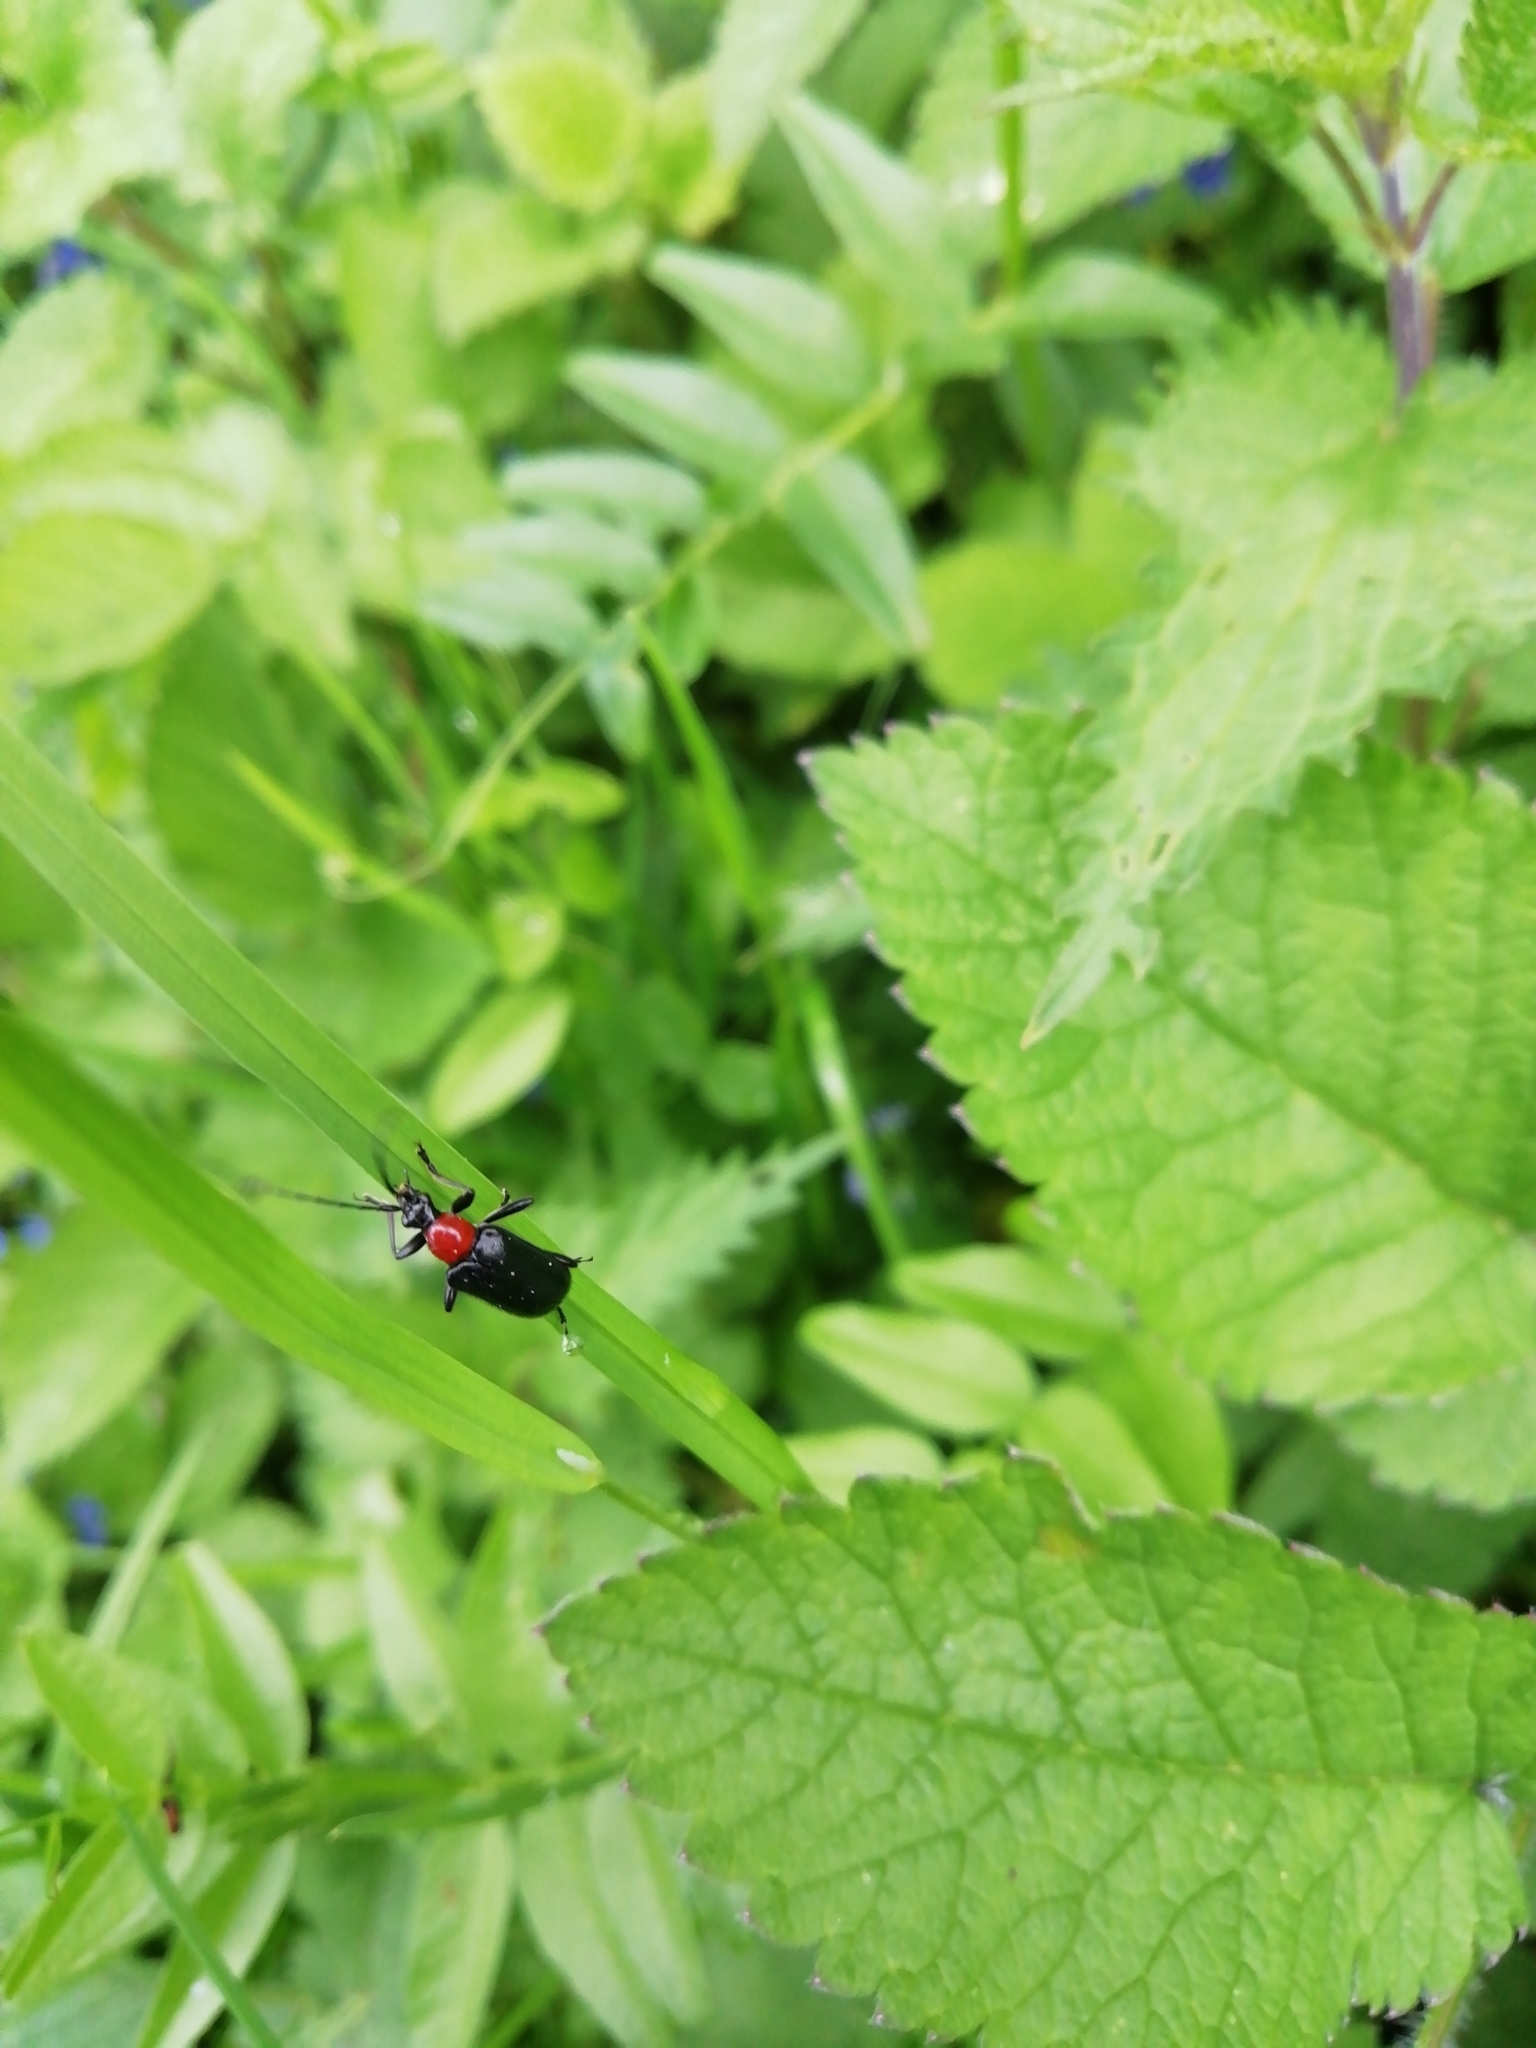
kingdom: Animalia
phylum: Arthropoda
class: Insecta
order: Coleoptera
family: Cerambycidae
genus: Dinoptera
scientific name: Dinoptera collaris
